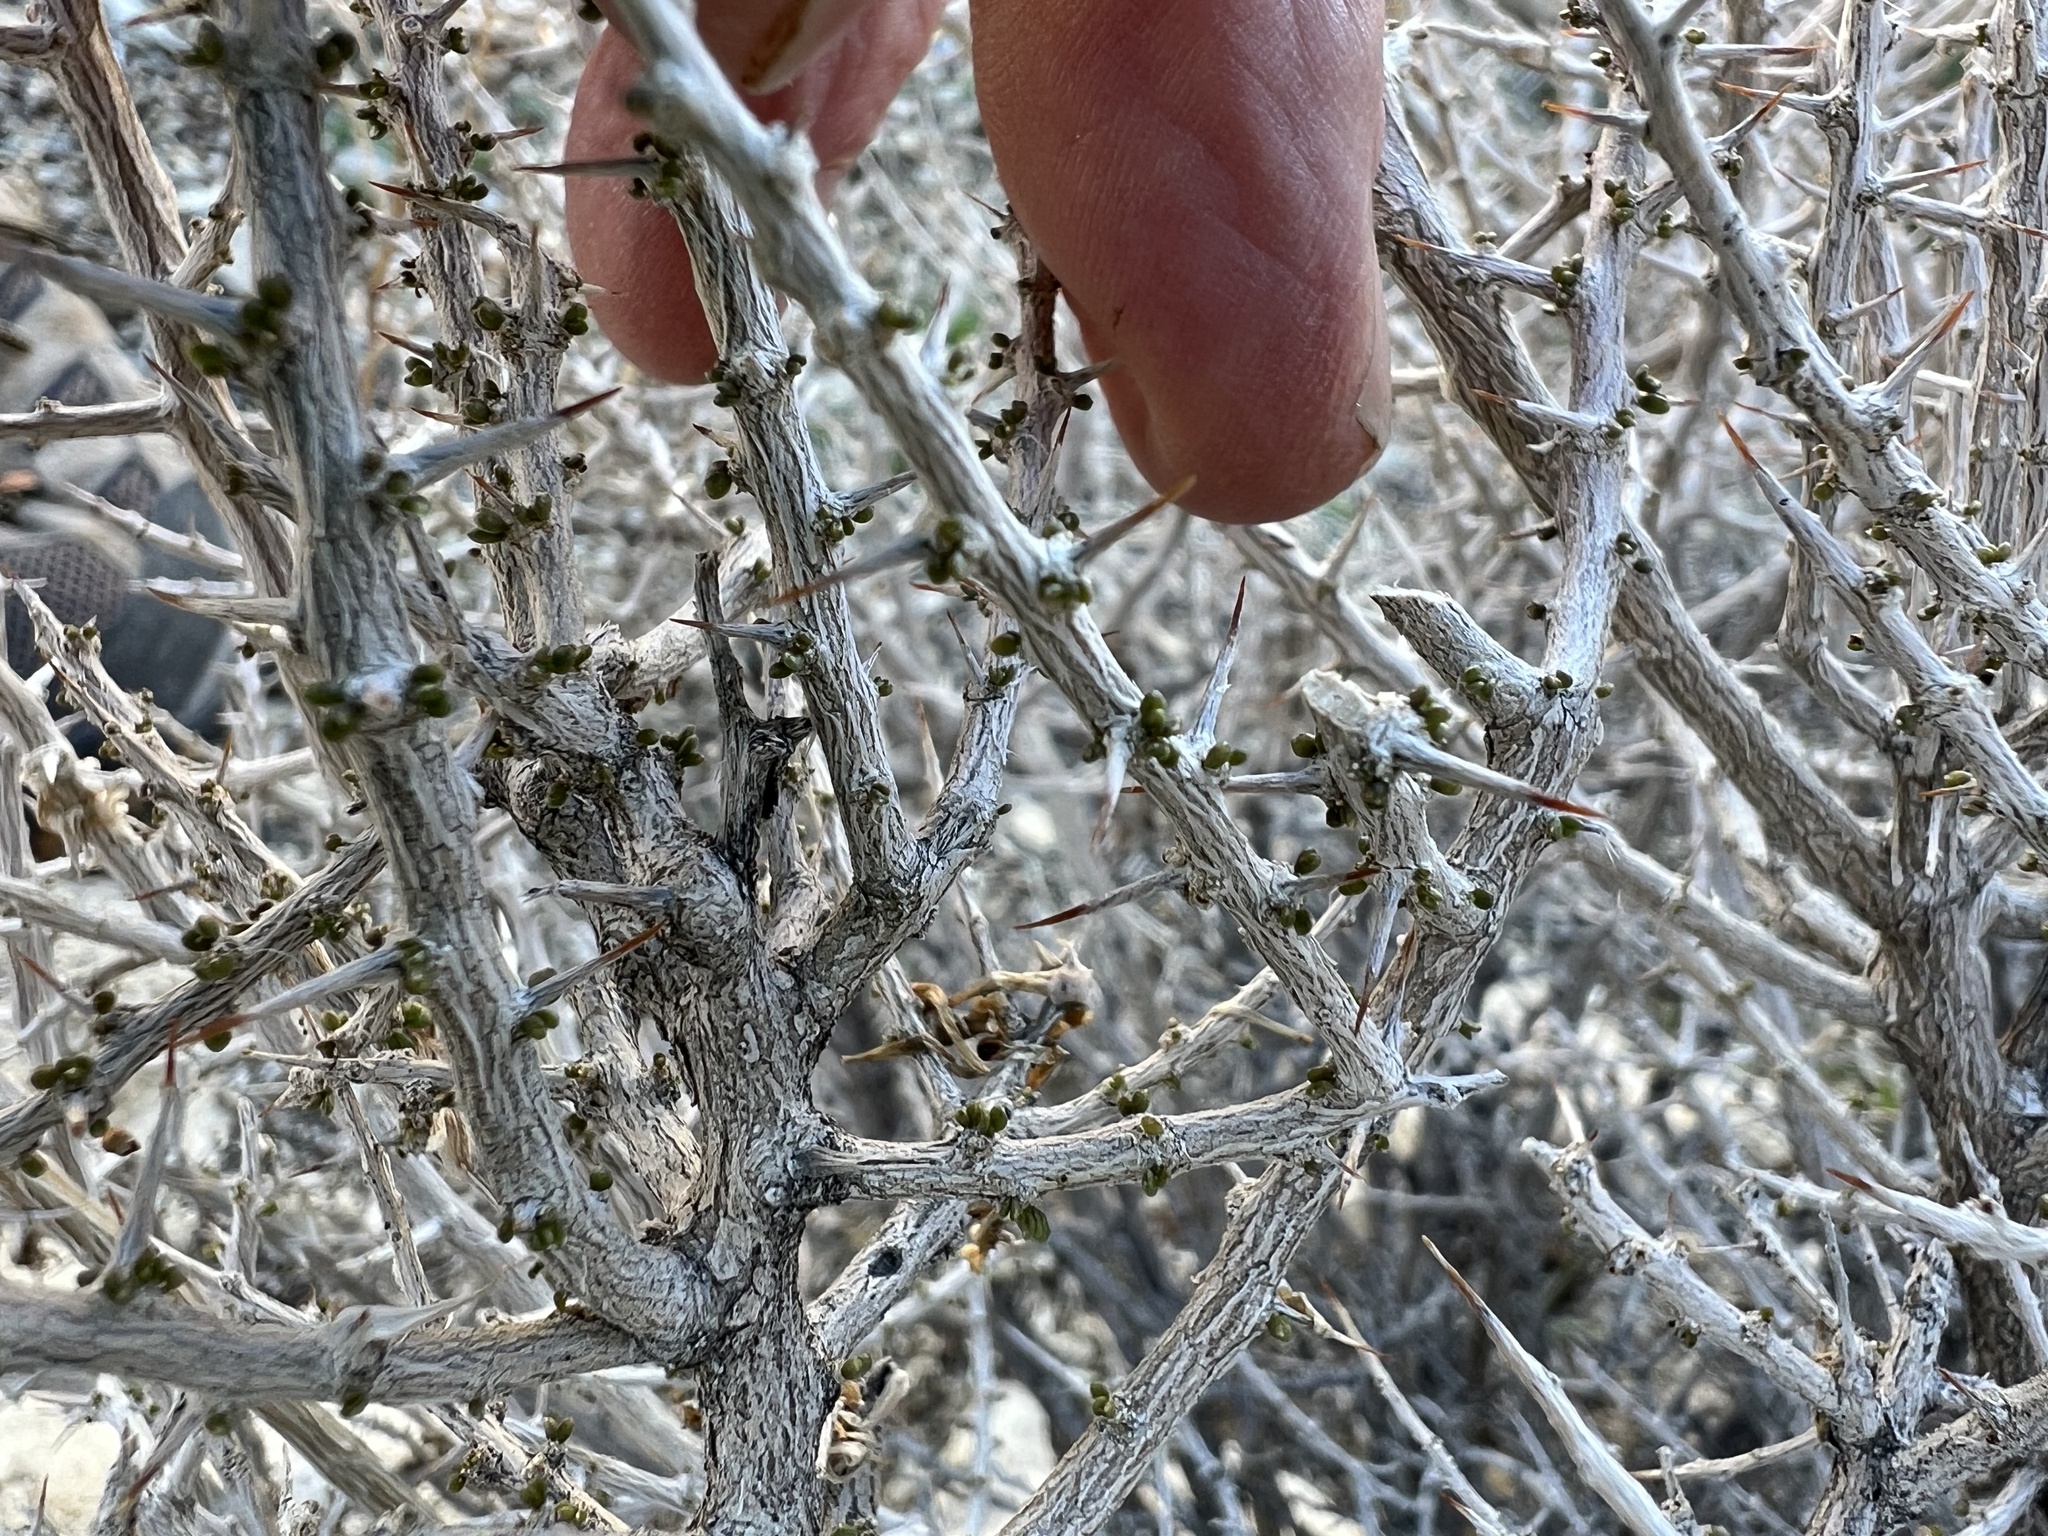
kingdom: Plantae
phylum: Tracheophyta
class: Magnoliopsida
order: Solanales
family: Solanaceae
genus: Lycium
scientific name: Lycium andersonii
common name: Water-jacket
